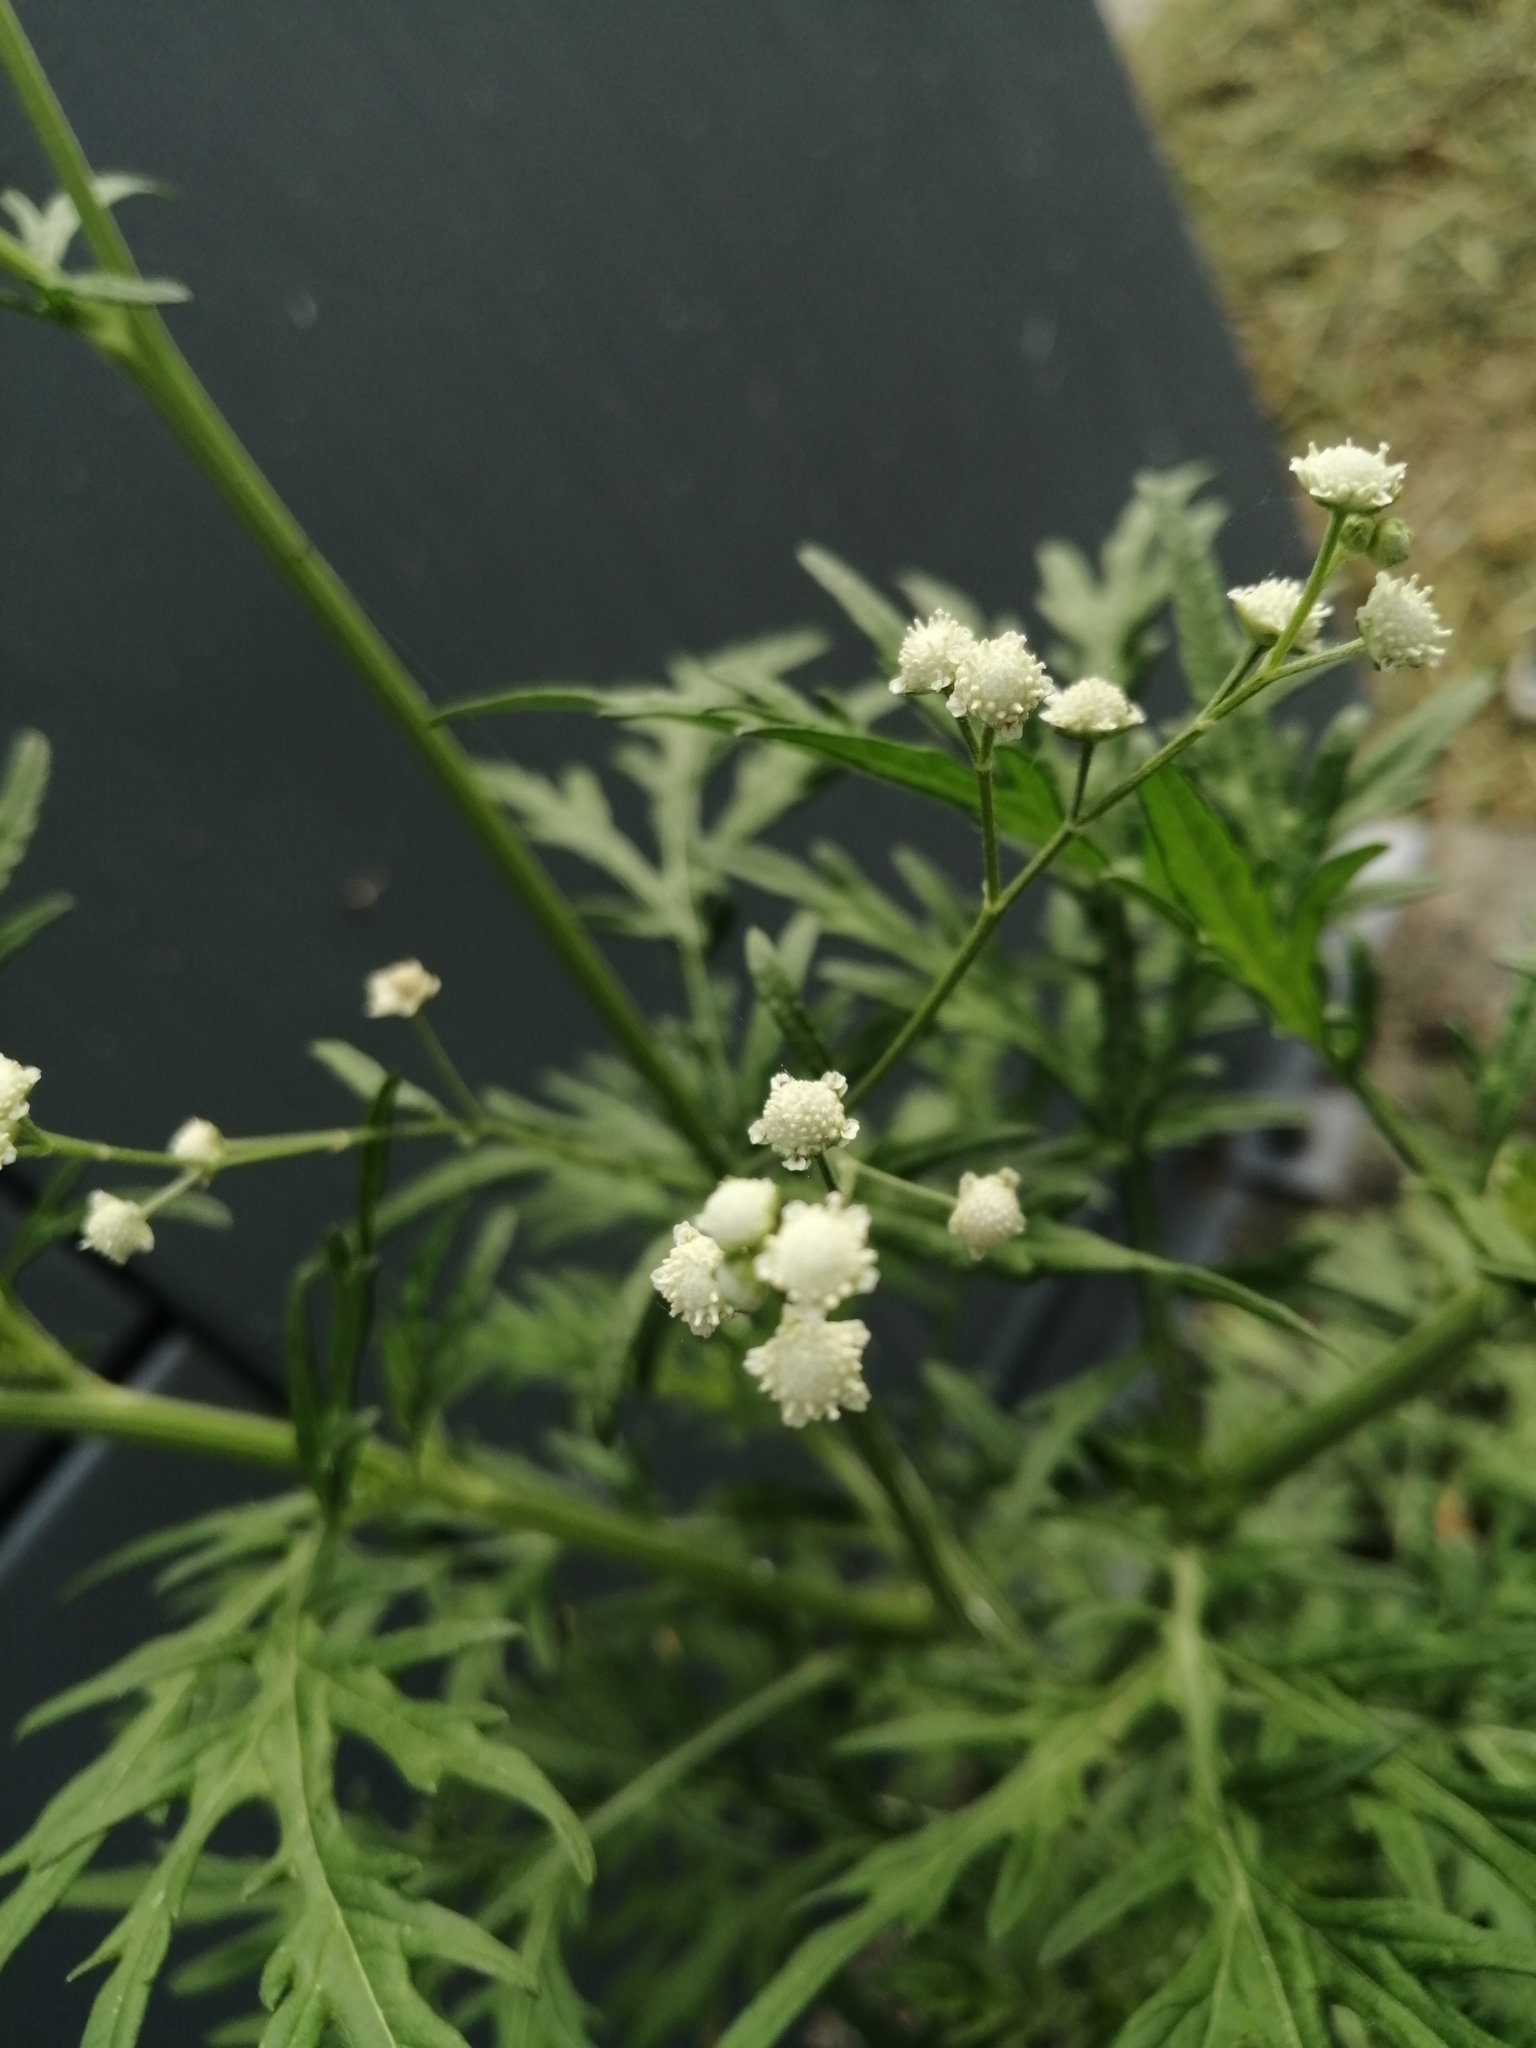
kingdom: Plantae
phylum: Tracheophyta
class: Magnoliopsida
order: Asterales
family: Asteraceae
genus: Parthenium
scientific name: Parthenium hysterophorus
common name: Santa maria feverfew
